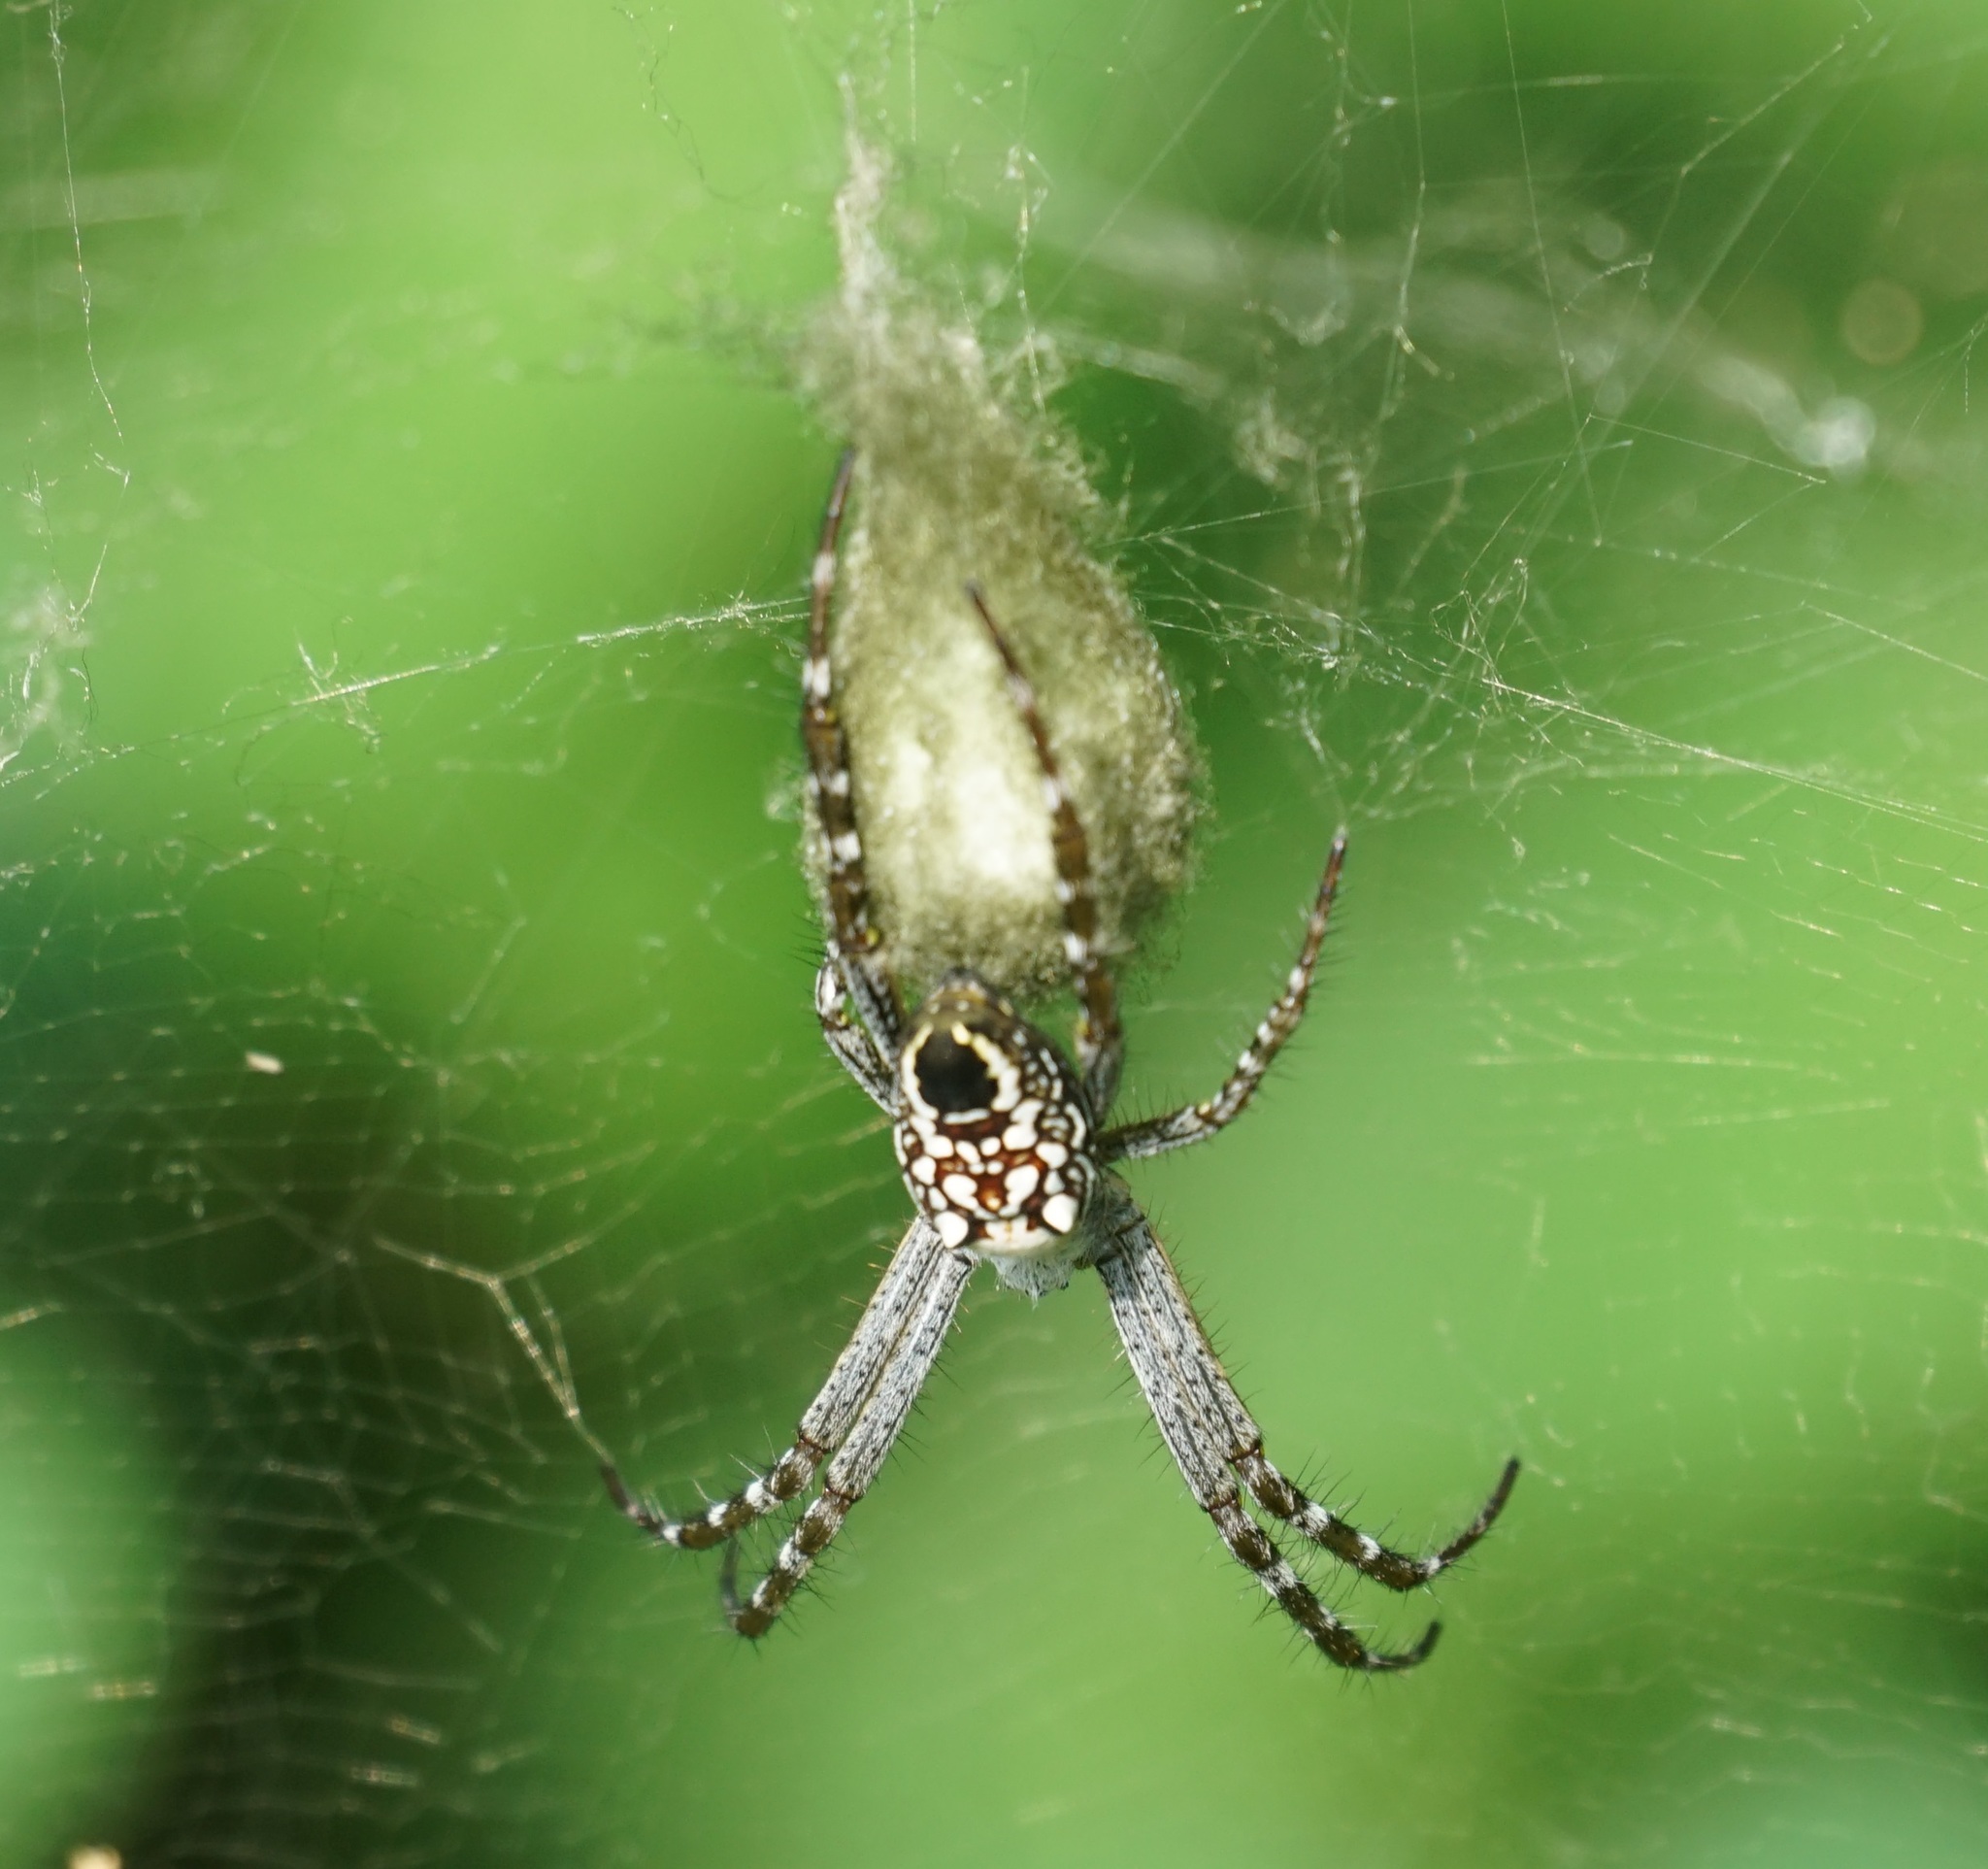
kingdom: Chromista
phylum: Ochrophyta
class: Dictyochophyceae
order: Pedinellales
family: Cyrtophoraceae
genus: Cyrtophora
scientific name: Cyrtophora moluccensis
